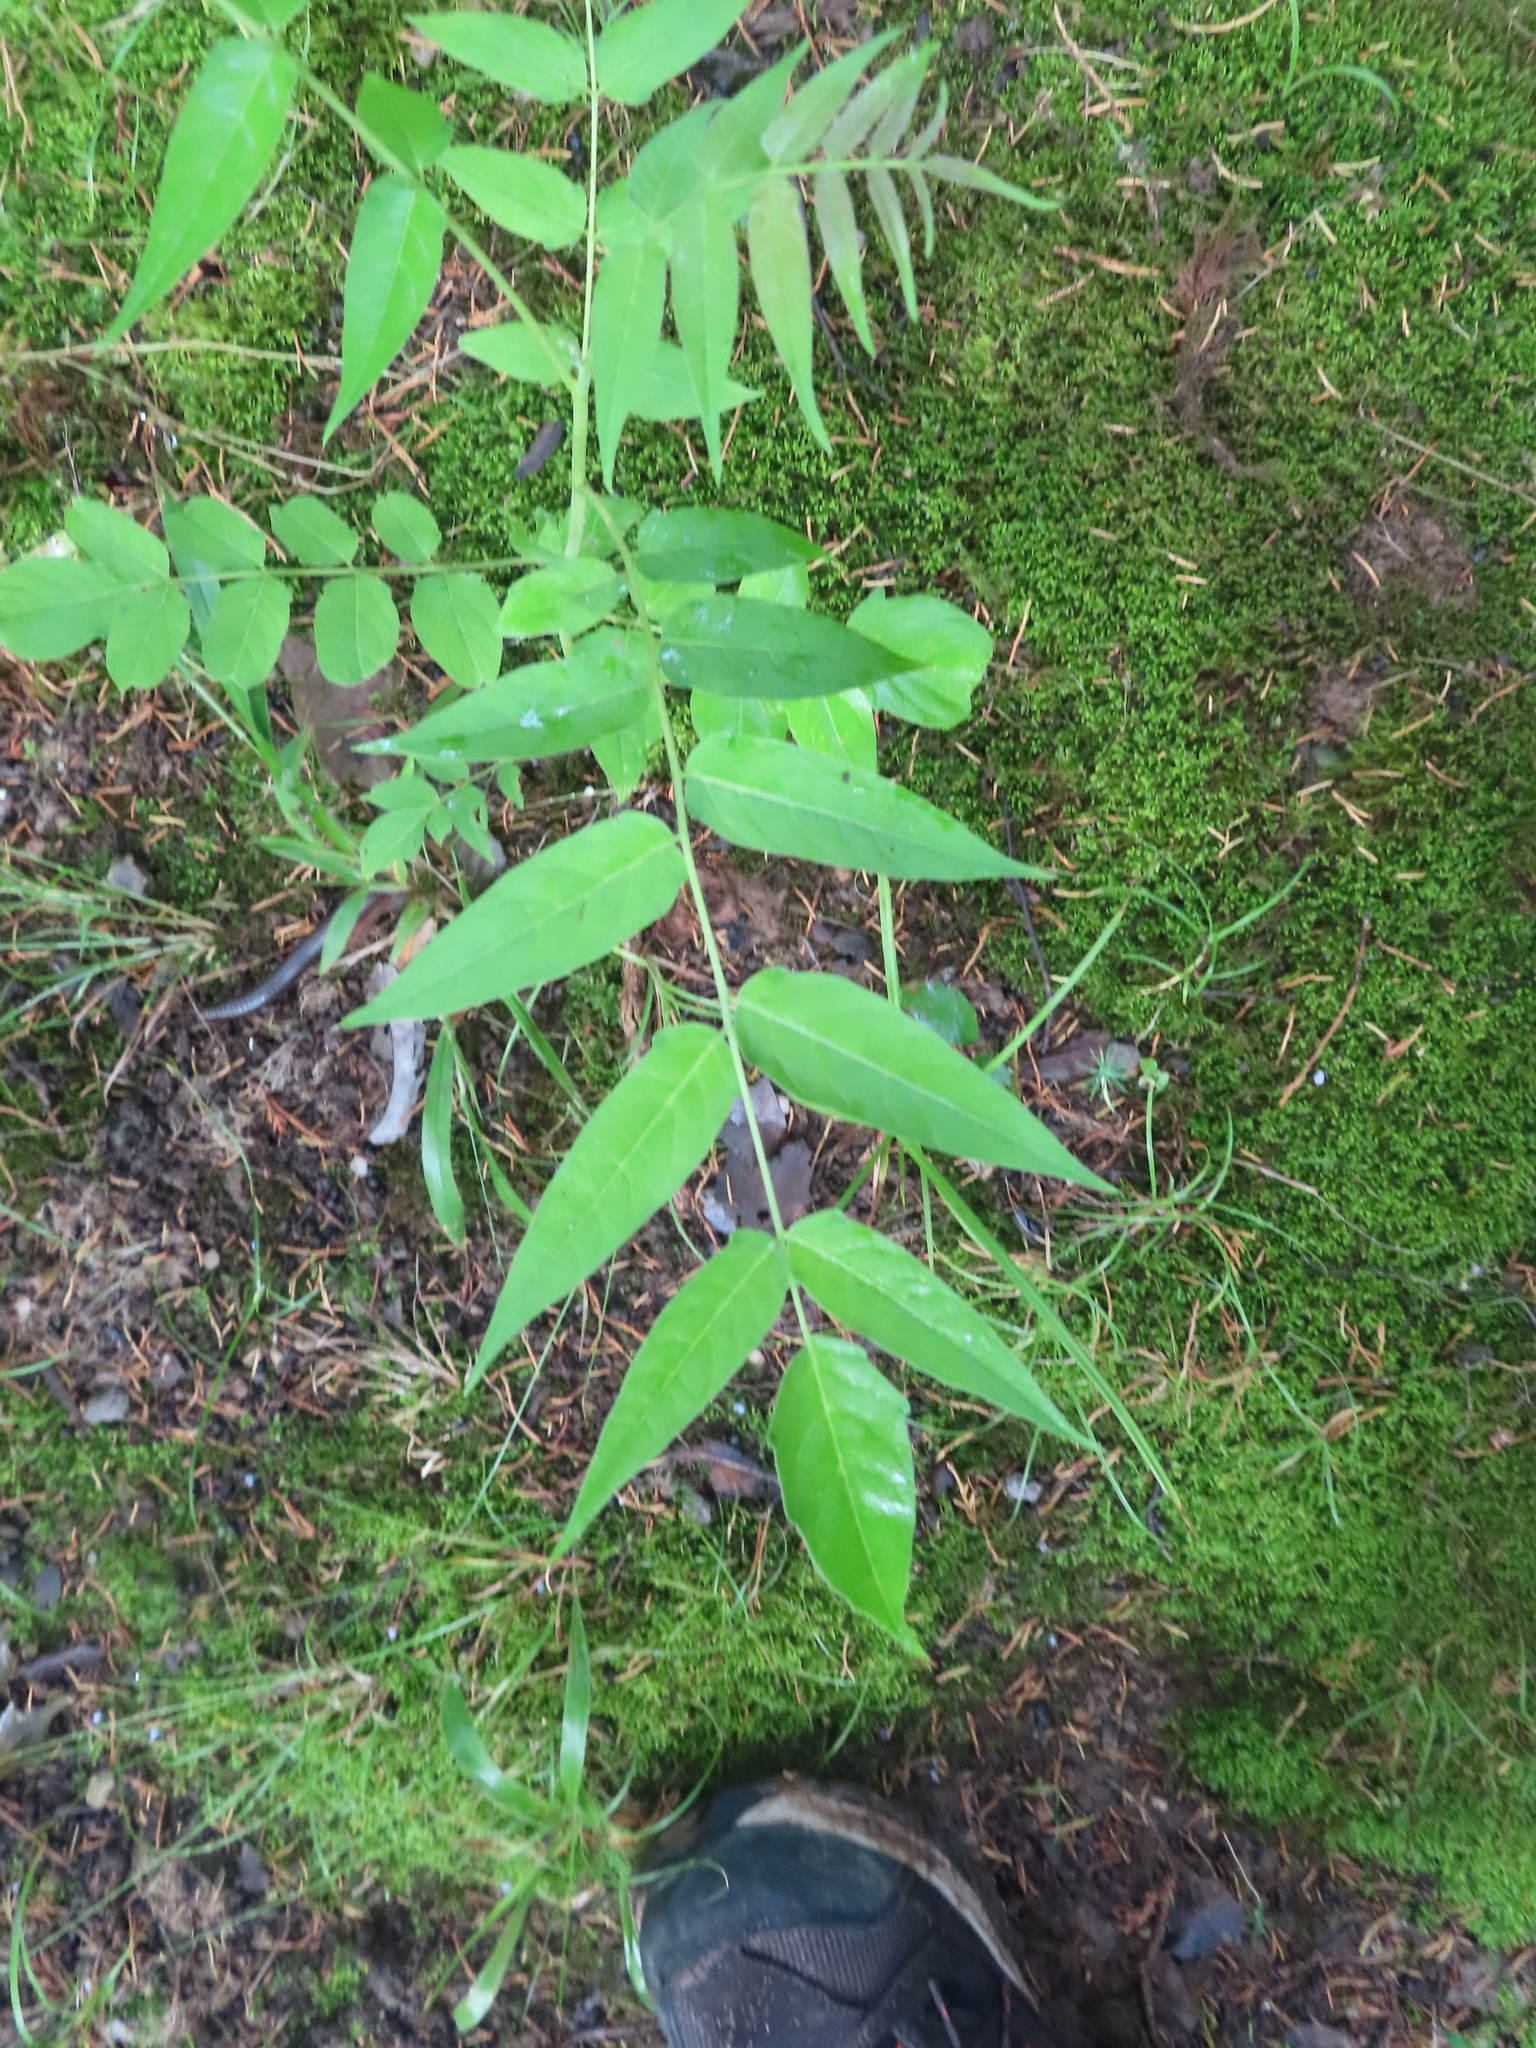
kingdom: Plantae
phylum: Tracheophyta
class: Magnoliopsida
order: Sapindales
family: Simaroubaceae
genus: Ailanthus
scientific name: Ailanthus altissima
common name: Tree-of-heaven
